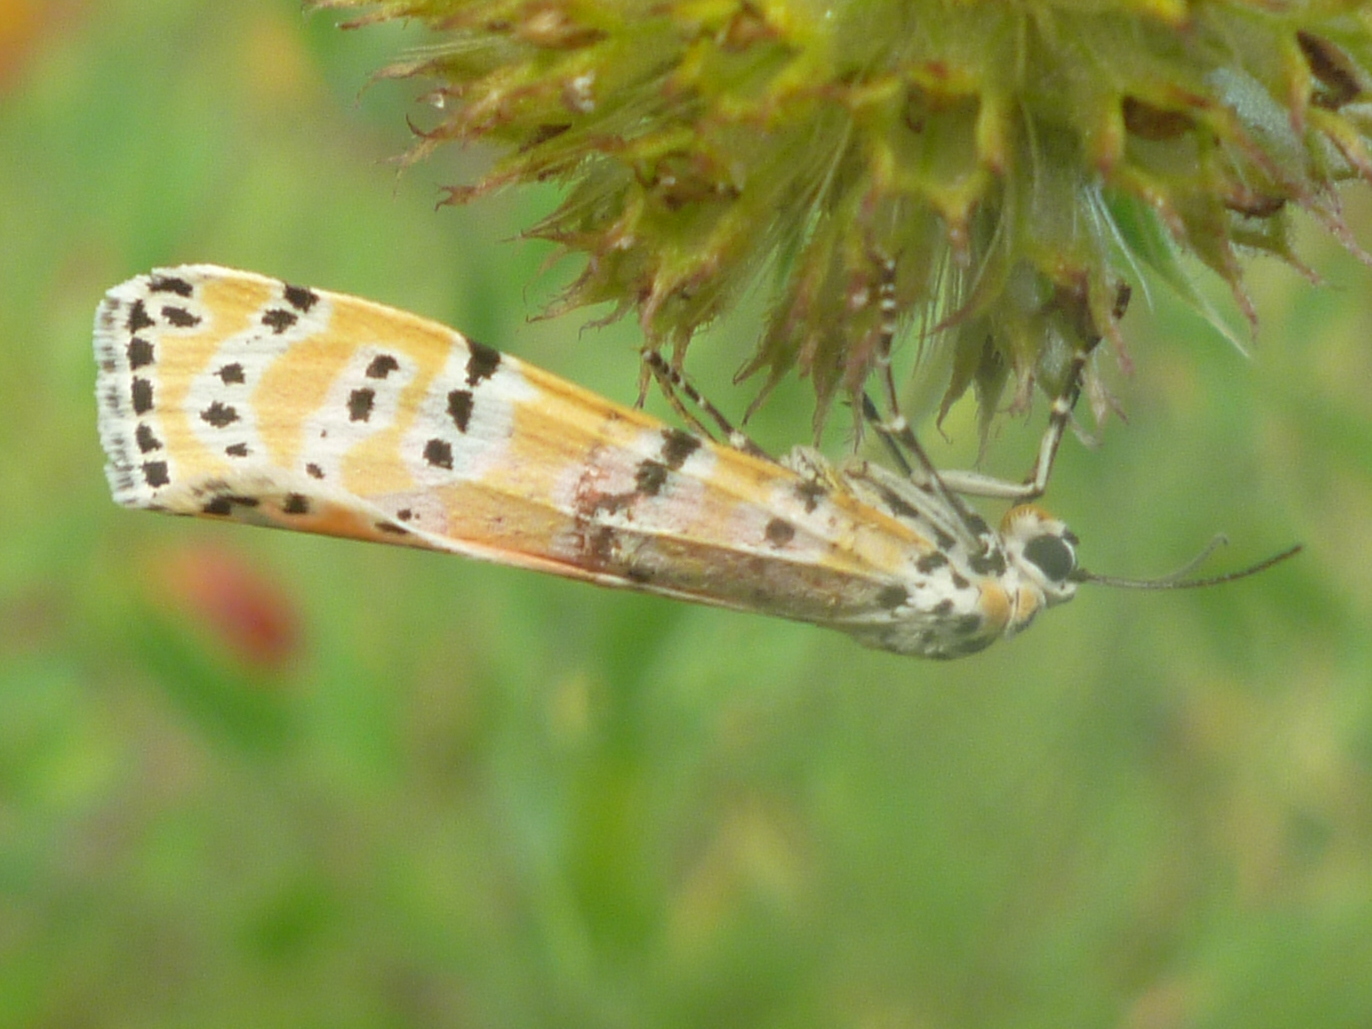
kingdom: Animalia
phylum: Arthropoda
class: Insecta
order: Lepidoptera
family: Erebidae
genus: Utetheisa
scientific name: Utetheisa ornatrix
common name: Beautiful utetheisa
